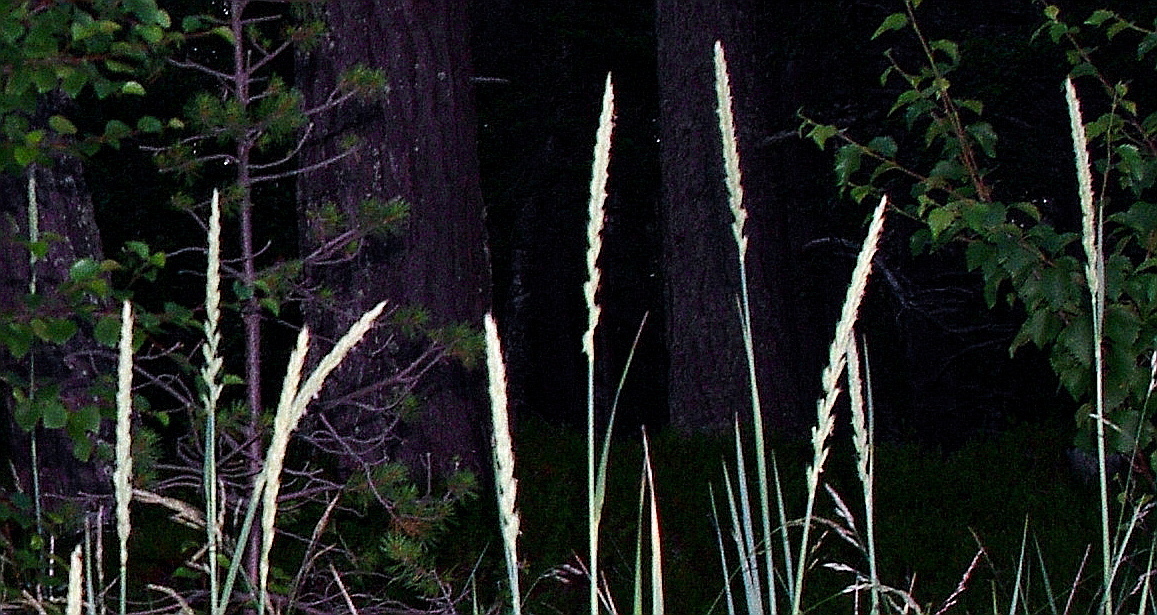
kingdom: Plantae
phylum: Tracheophyta
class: Liliopsida
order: Poales
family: Poaceae
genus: Elymus
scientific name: Elymus repens
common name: Quackgrass
